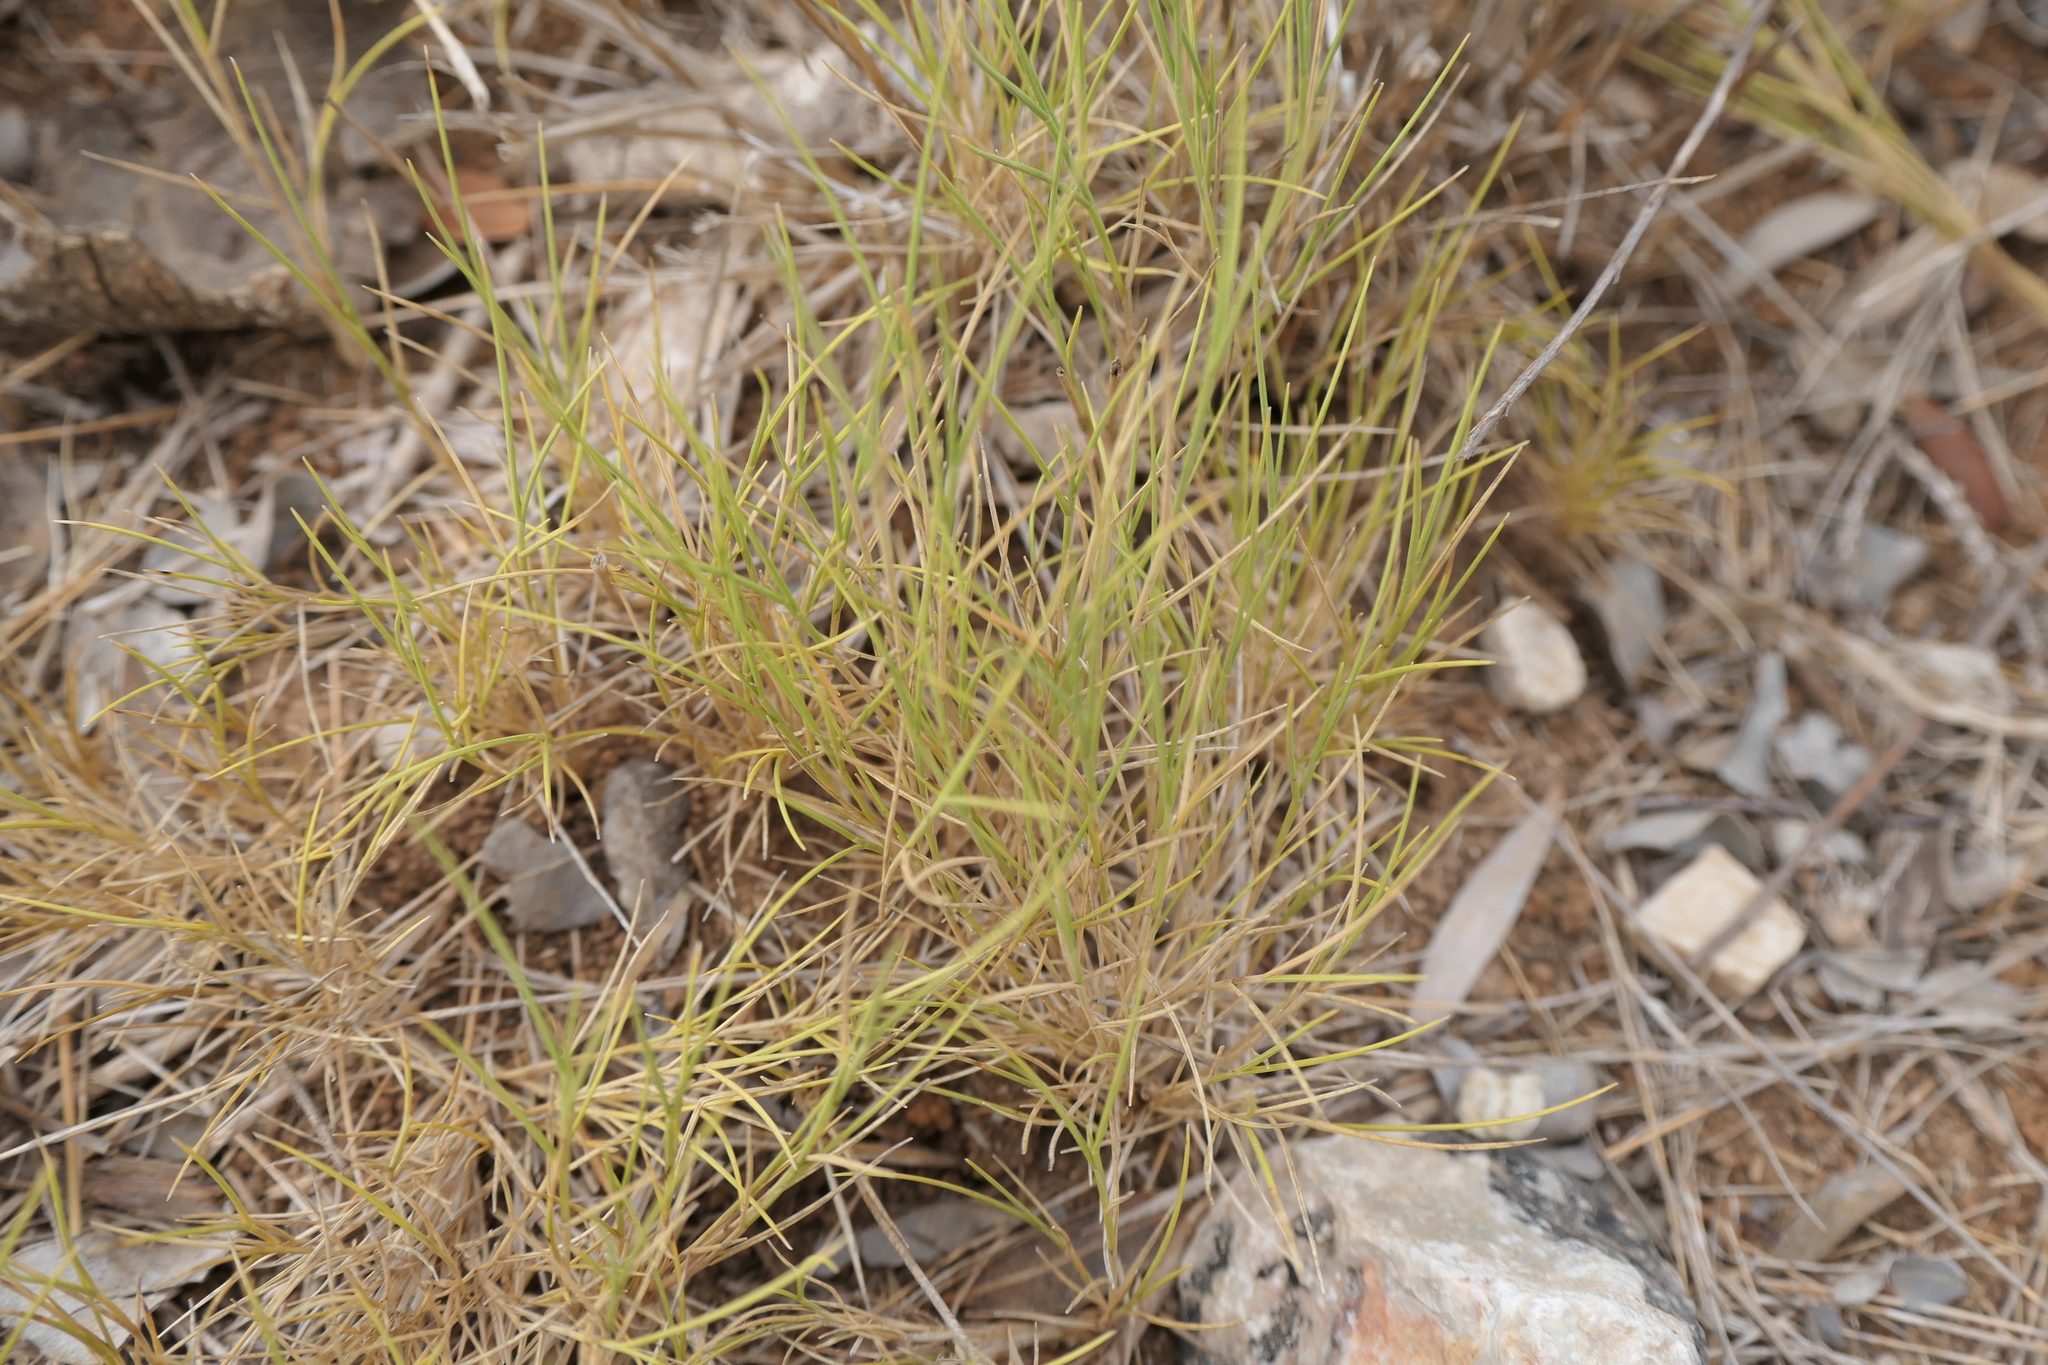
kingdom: Plantae
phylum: Tracheophyta
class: Liliopsida
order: Poales
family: Poaceae
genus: Brachypodium
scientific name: Brachypodium retusum
